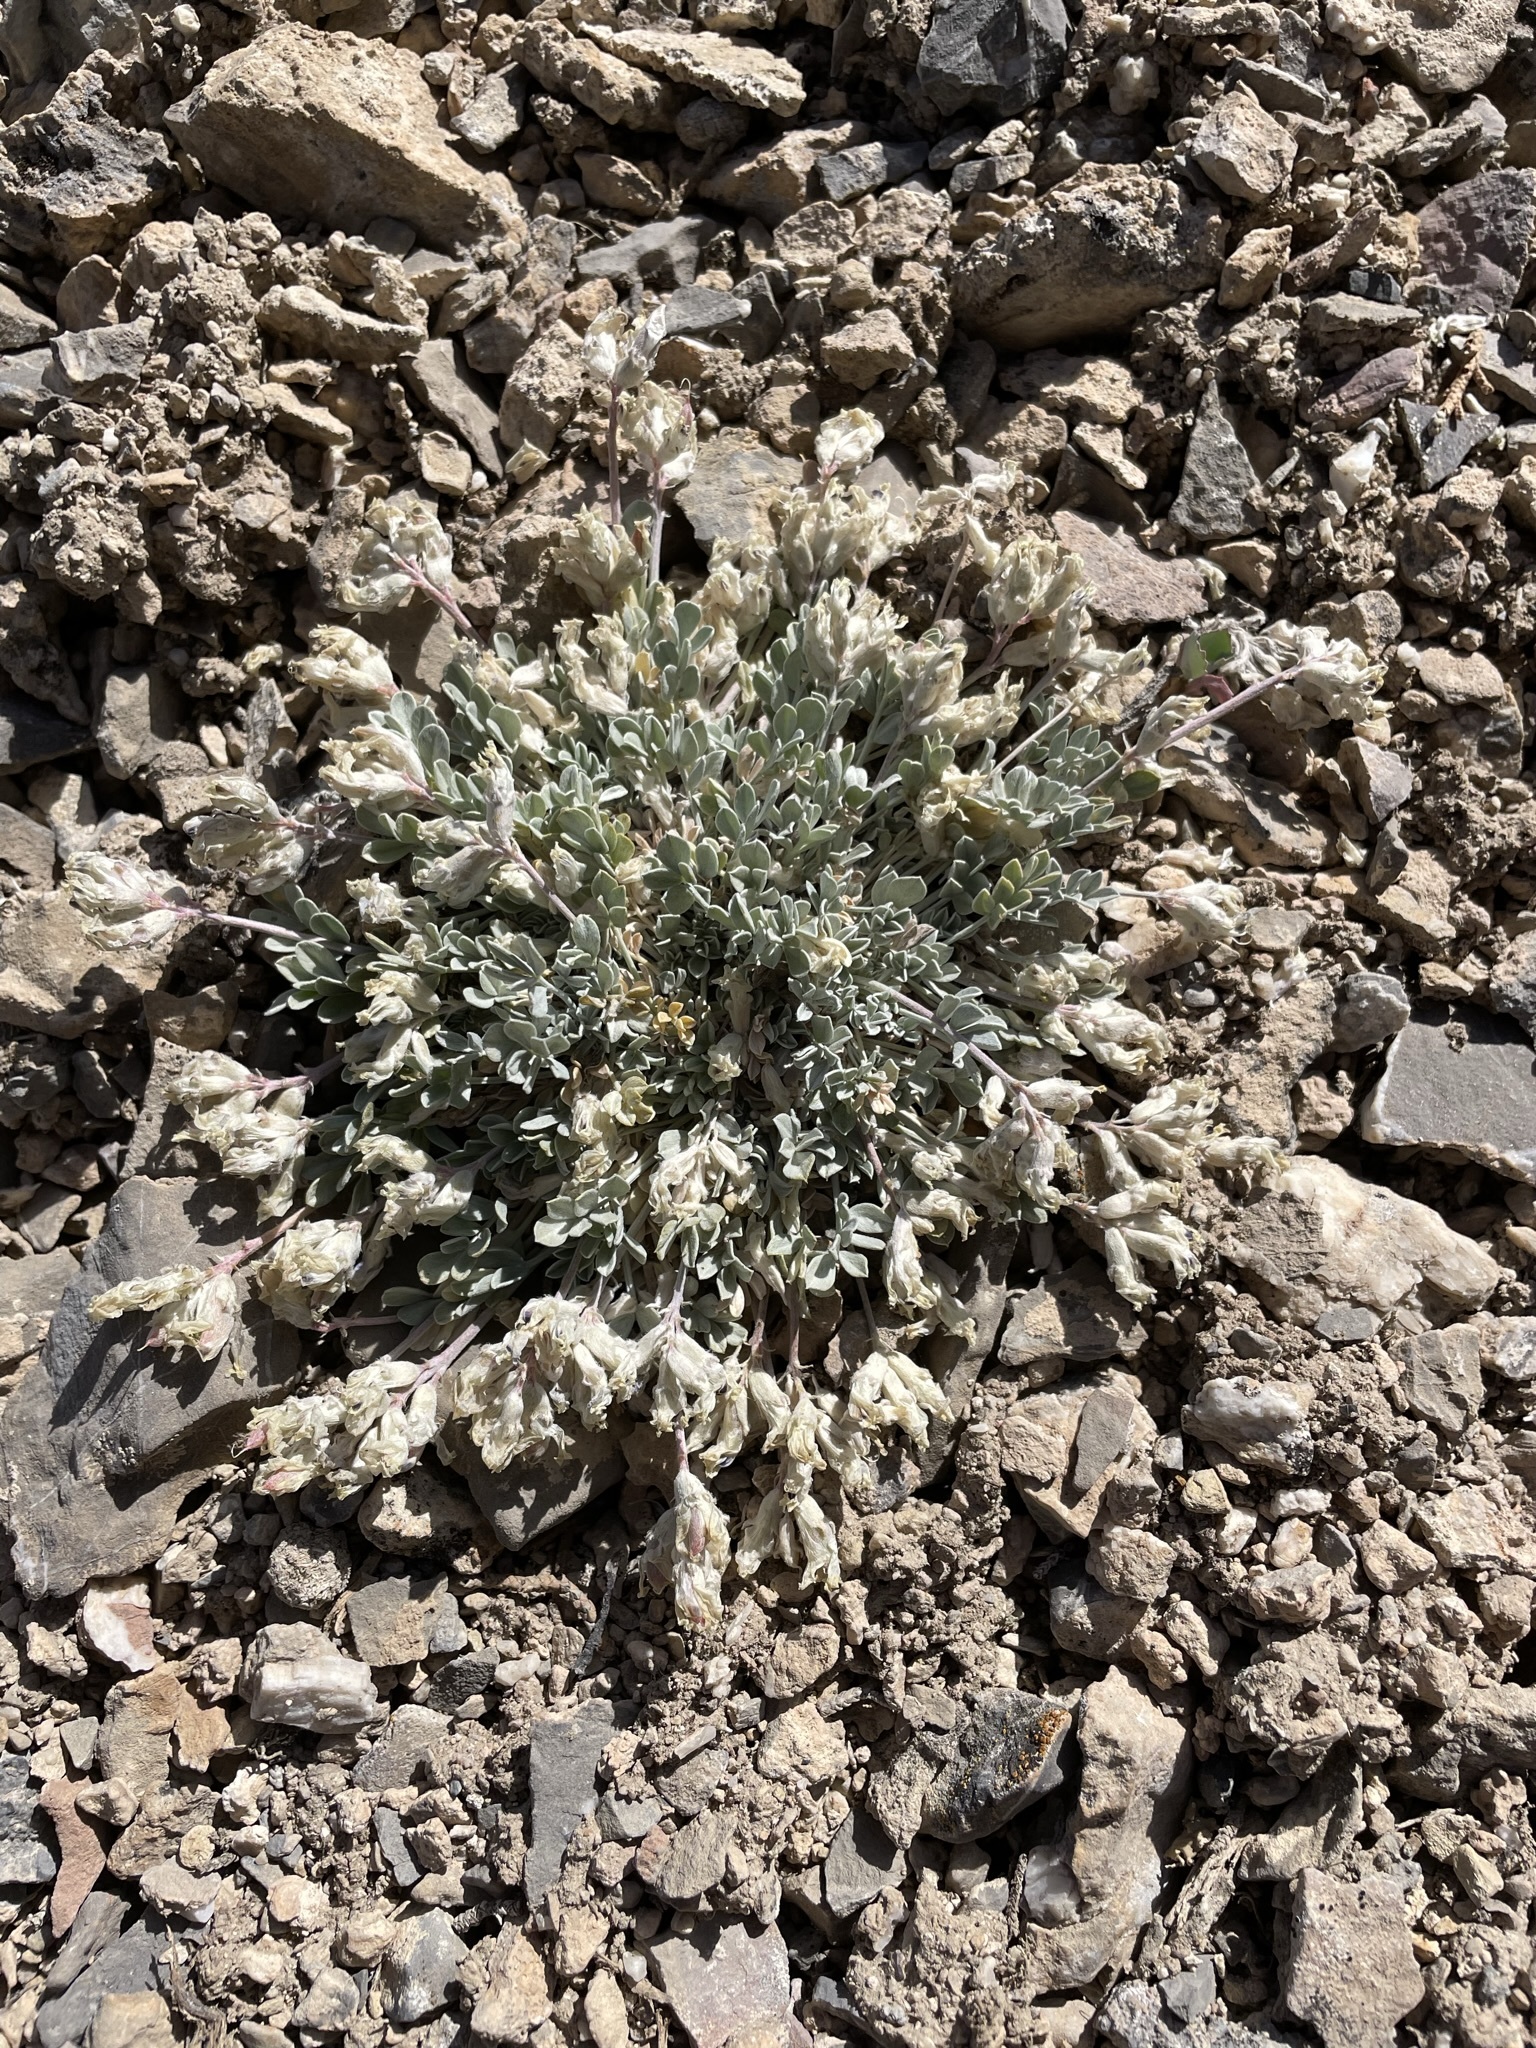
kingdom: Plantae
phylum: Tracheophyta
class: Magnoliopsida
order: Fabales
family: Fabaceae
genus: Astragalus
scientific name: Astragalus calycosus
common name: King's milkvetch
